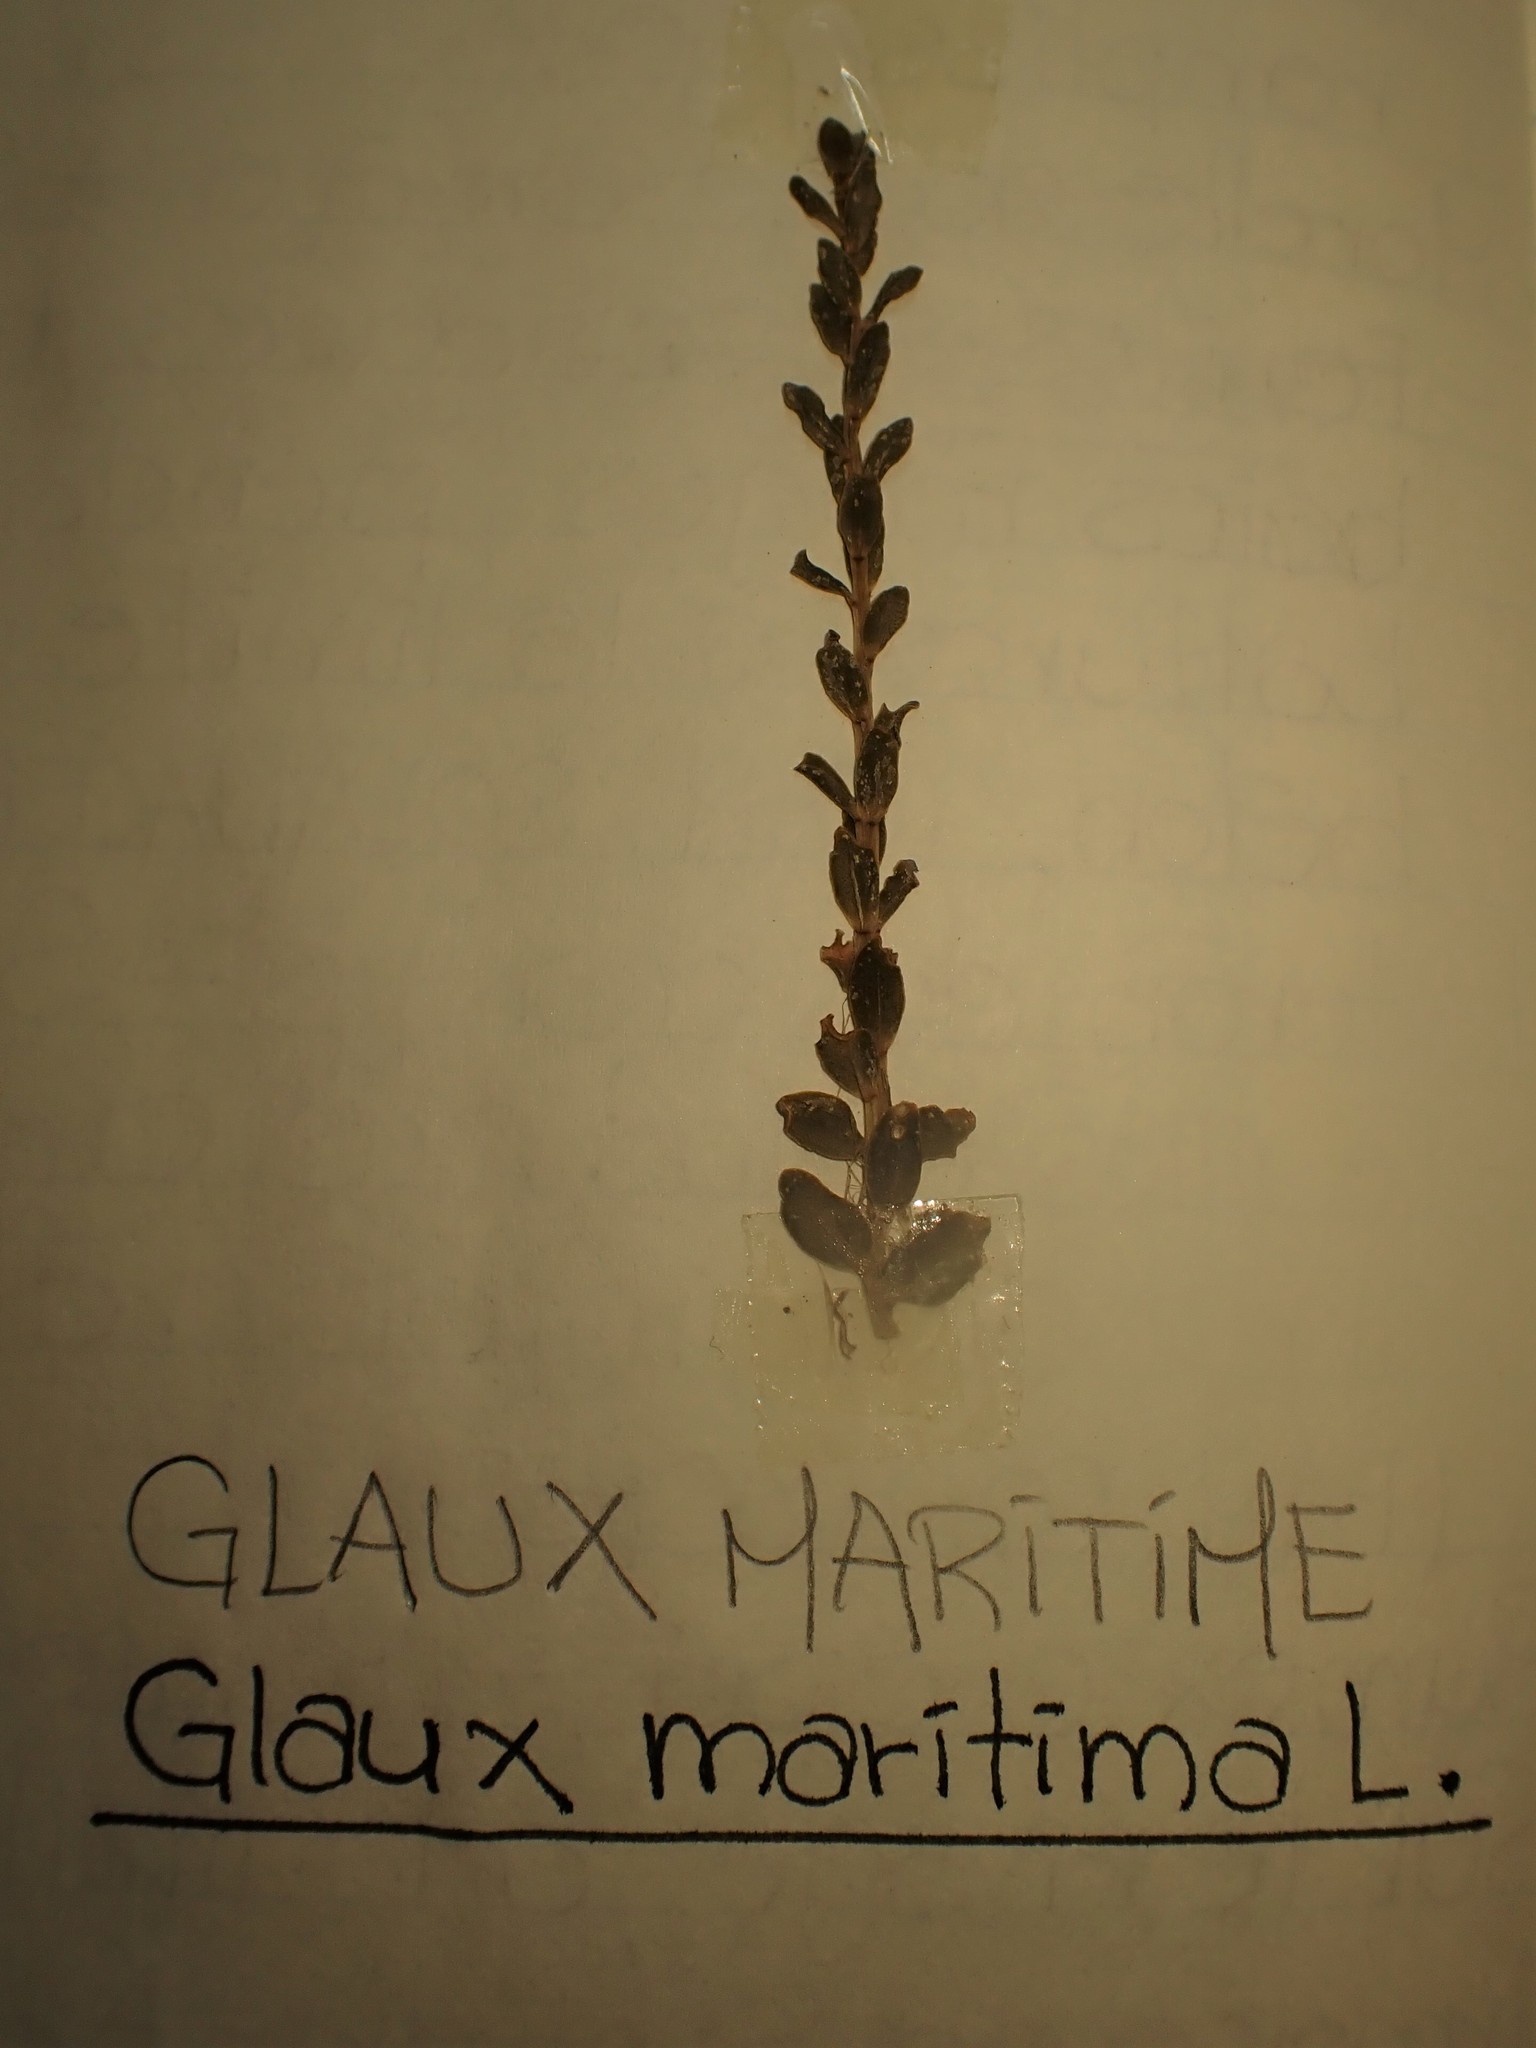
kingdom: Plantae
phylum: Tracheophyta
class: Magnoliopsida
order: Ericales
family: Primulaceae
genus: Lysimachia
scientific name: Lysimachia maritima
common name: Sea milkwort
